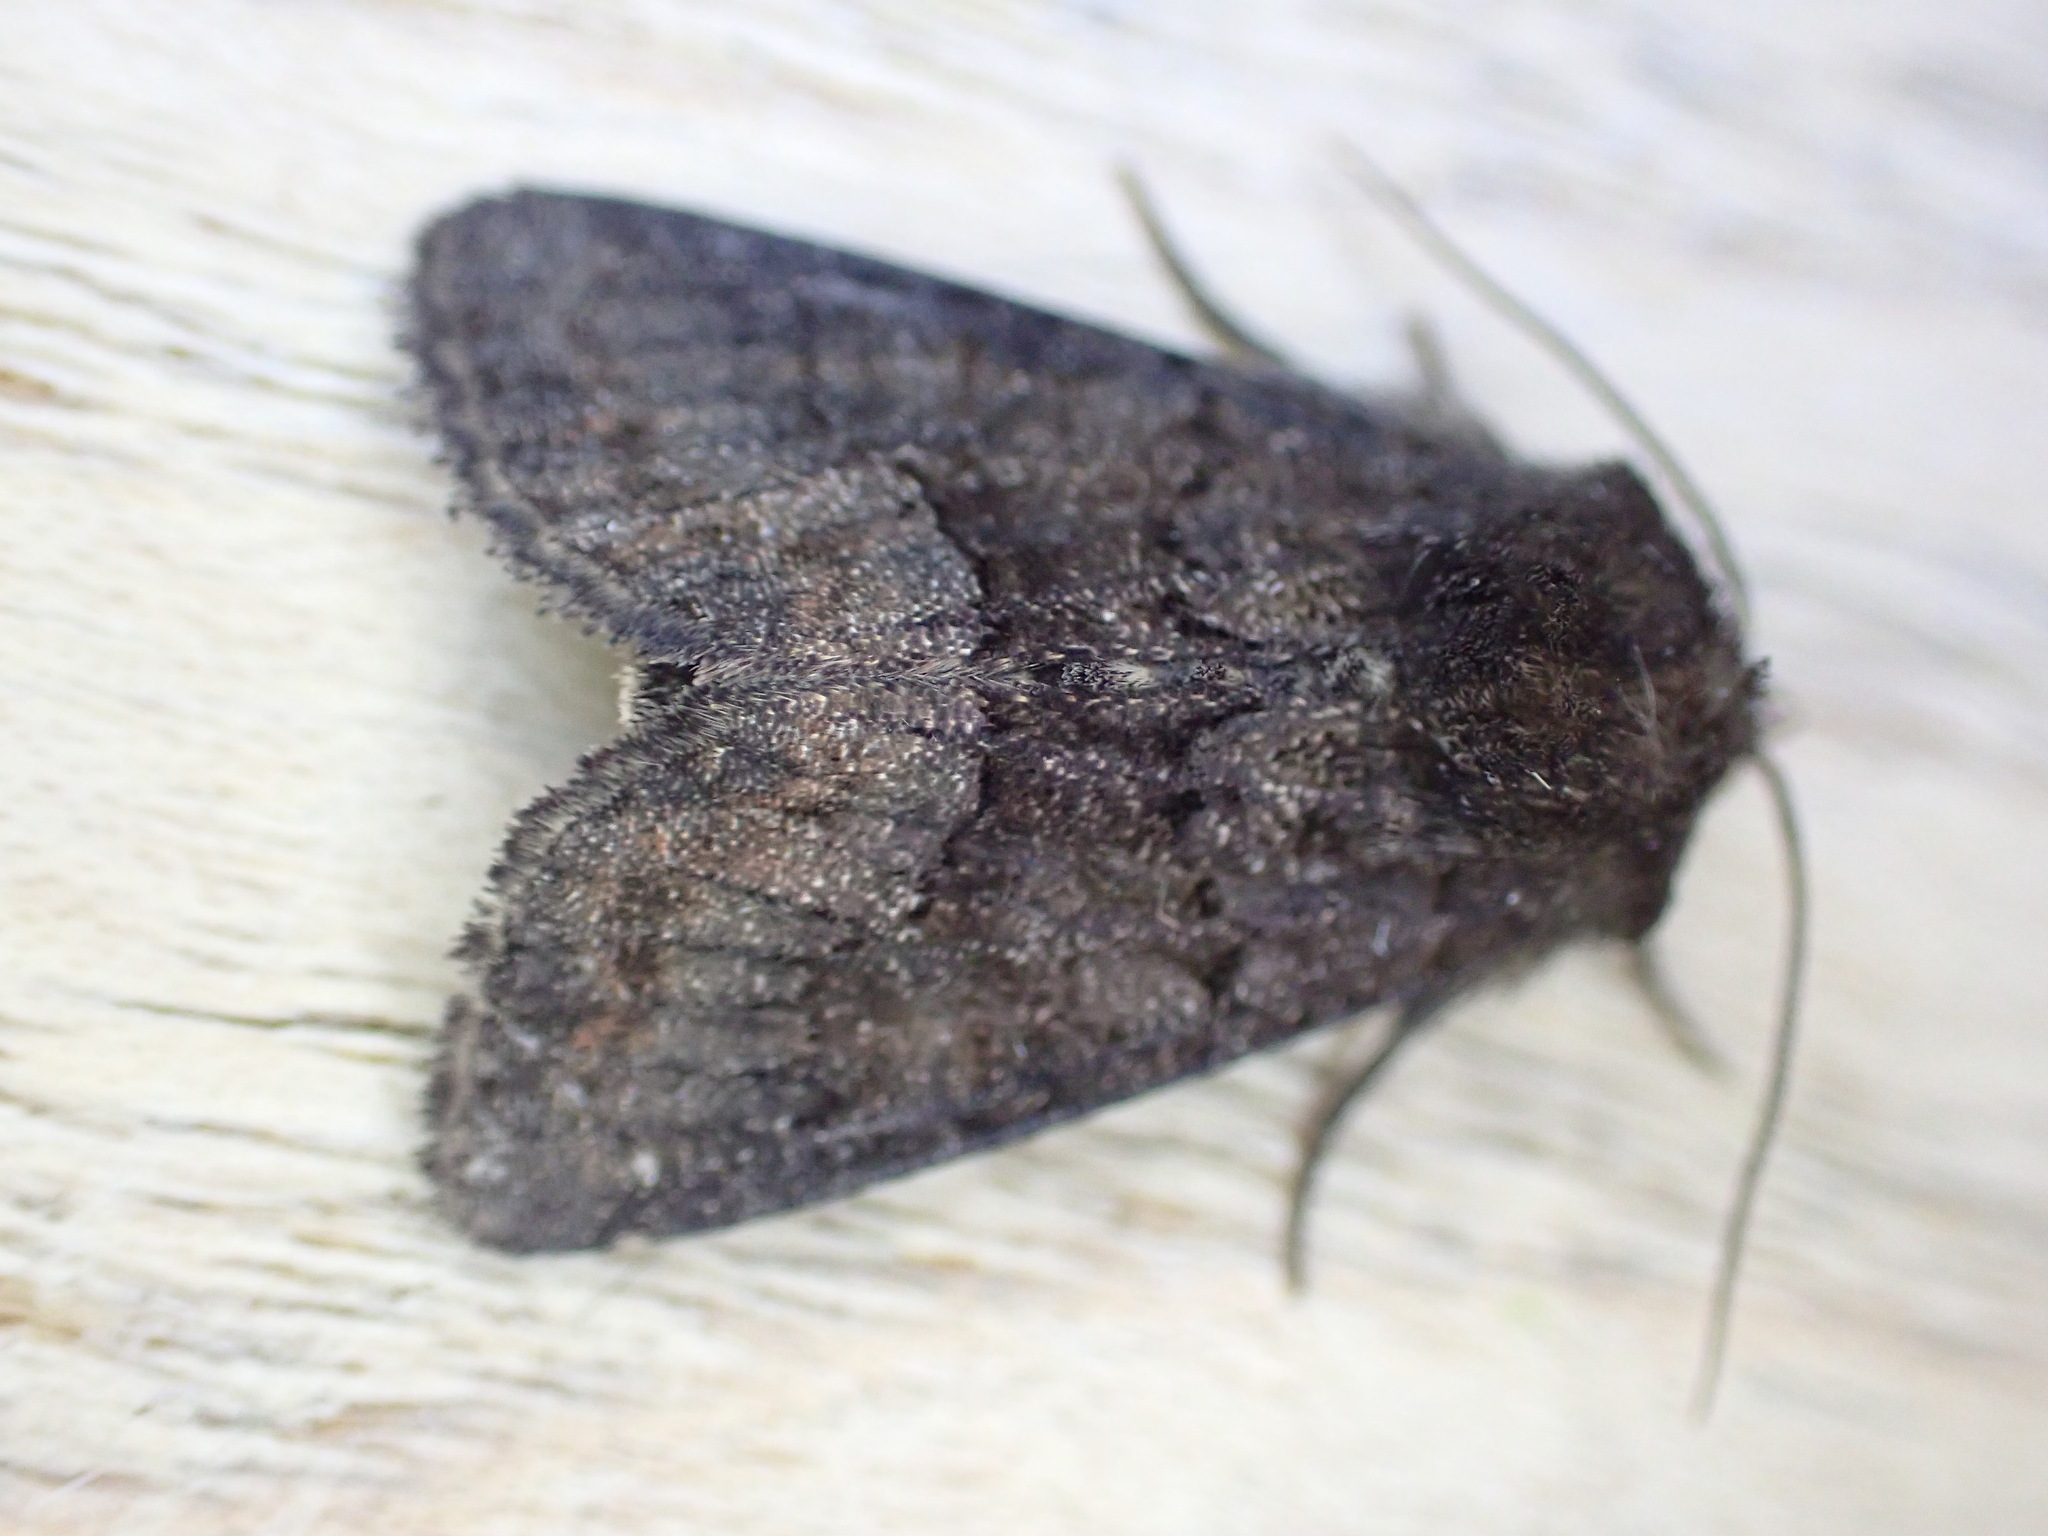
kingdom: Animalia
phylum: Arthropoda
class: Insecta
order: Lepidoptera
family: Noctuidae
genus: Oligia
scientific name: Oligia latruncula
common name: Tawny marbled minor
